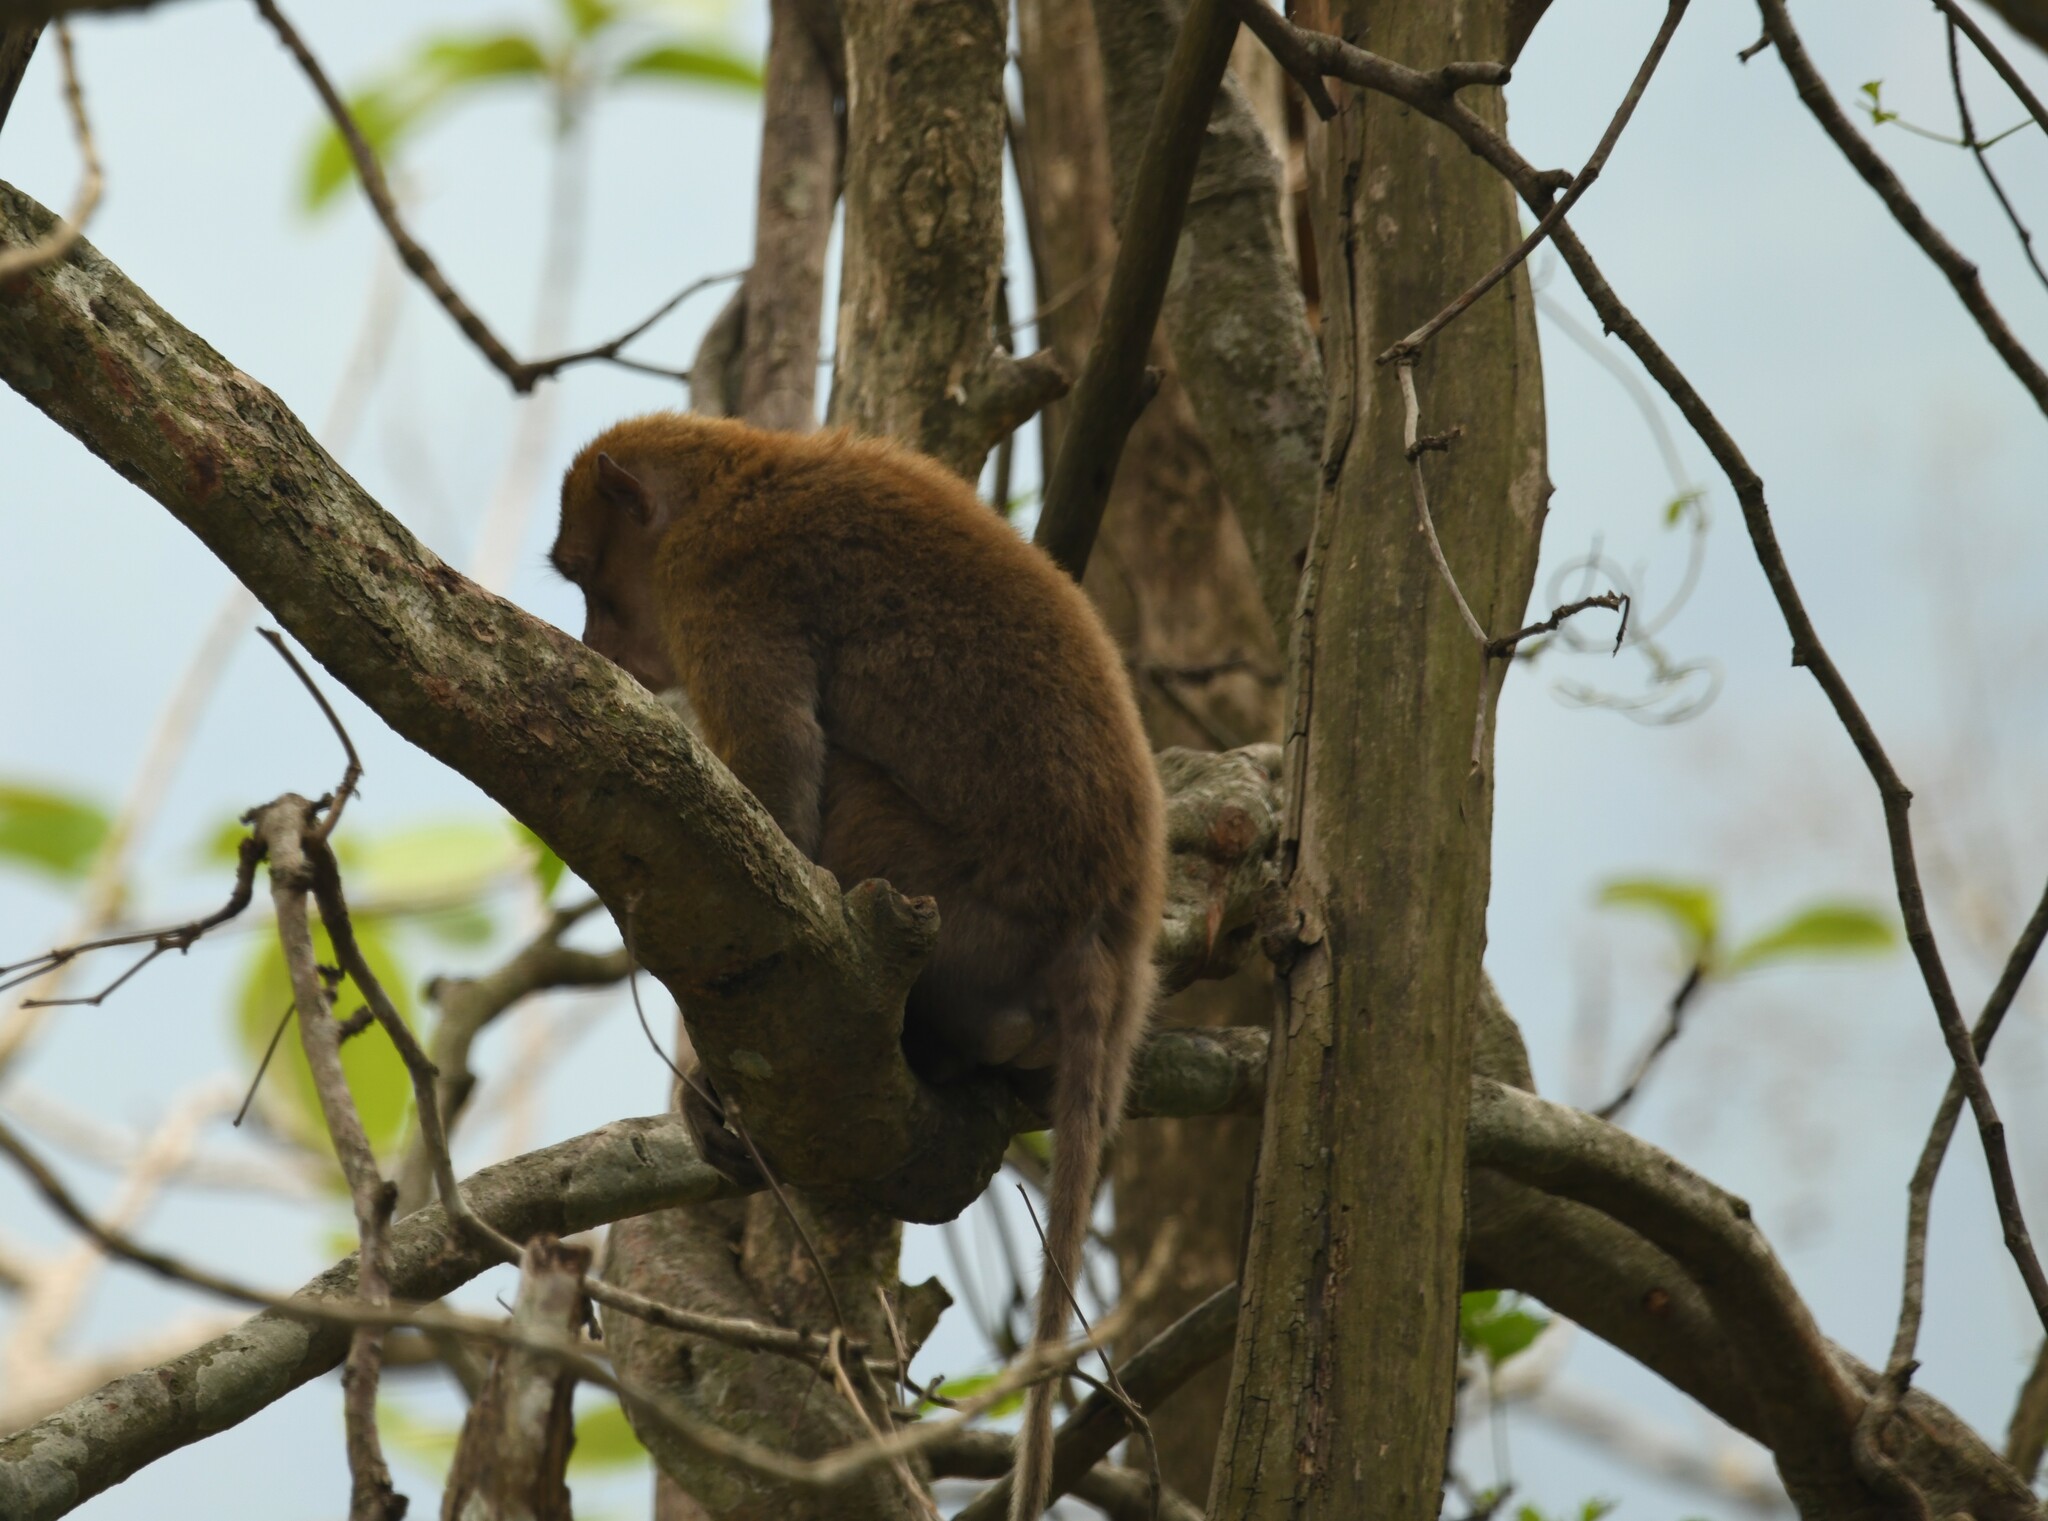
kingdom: Animalia
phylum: Chordata
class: Mammalia
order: Primates
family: Cercopithecidae
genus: Macaca
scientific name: Macaca assamensis
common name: Assam macaque
